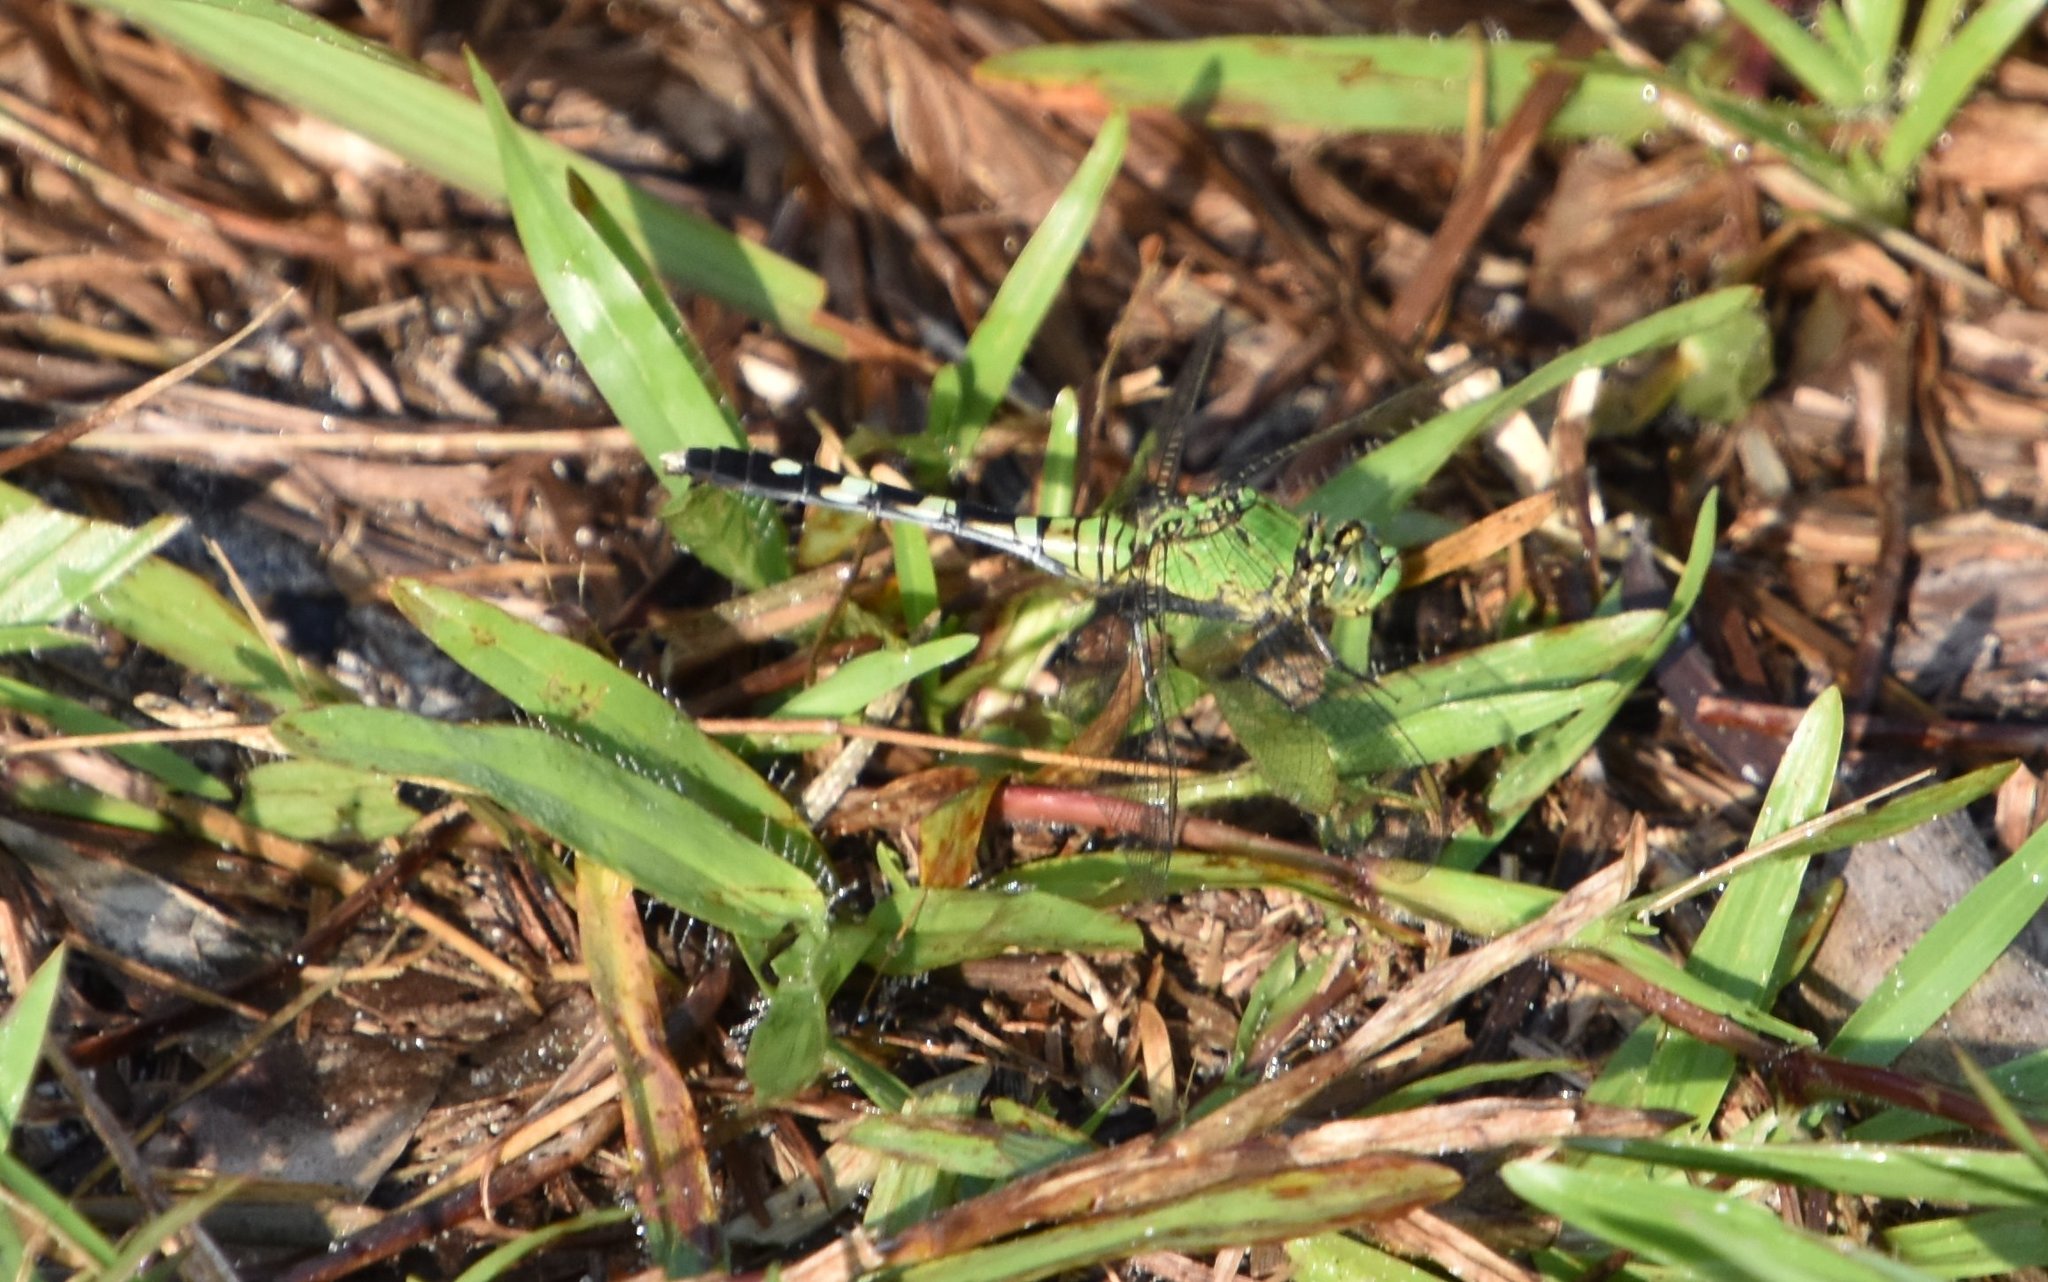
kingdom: Animalia
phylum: Arthropoda
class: Insecta
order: Odonata
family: Libellulidae
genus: Erythemis
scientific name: Erythemis simplicicollis
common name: Eastern pondhawk
